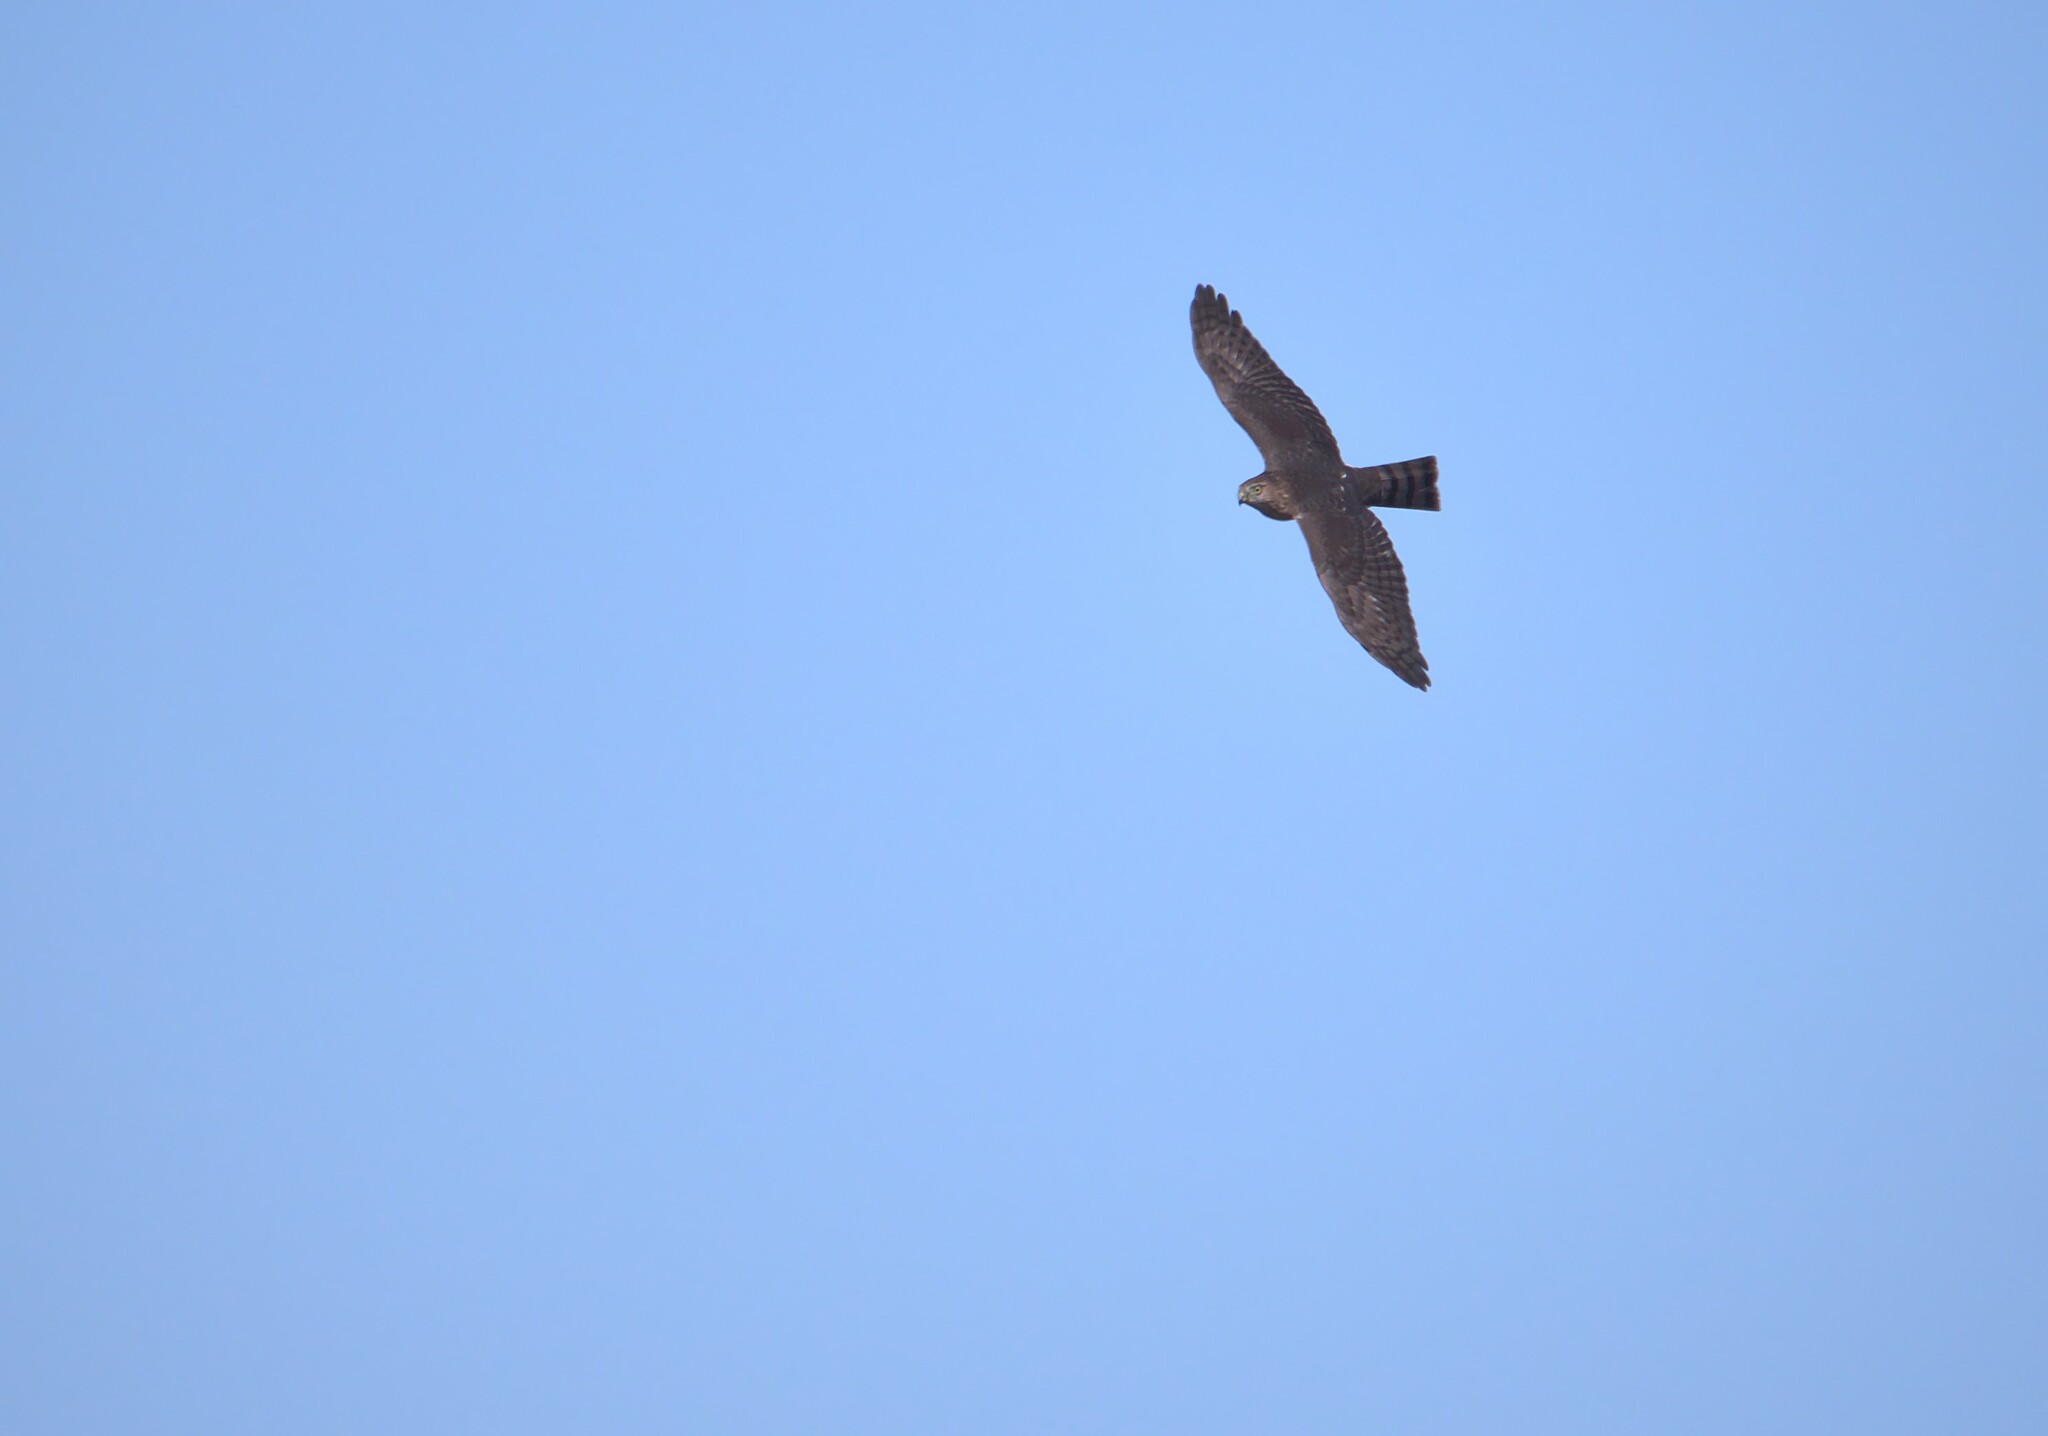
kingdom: Animalia
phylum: Chordata
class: Aves
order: Accipitriformes
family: Accipitridae
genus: Accipiter
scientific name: Accipiter striatus
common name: Sharp-shinned hawk
